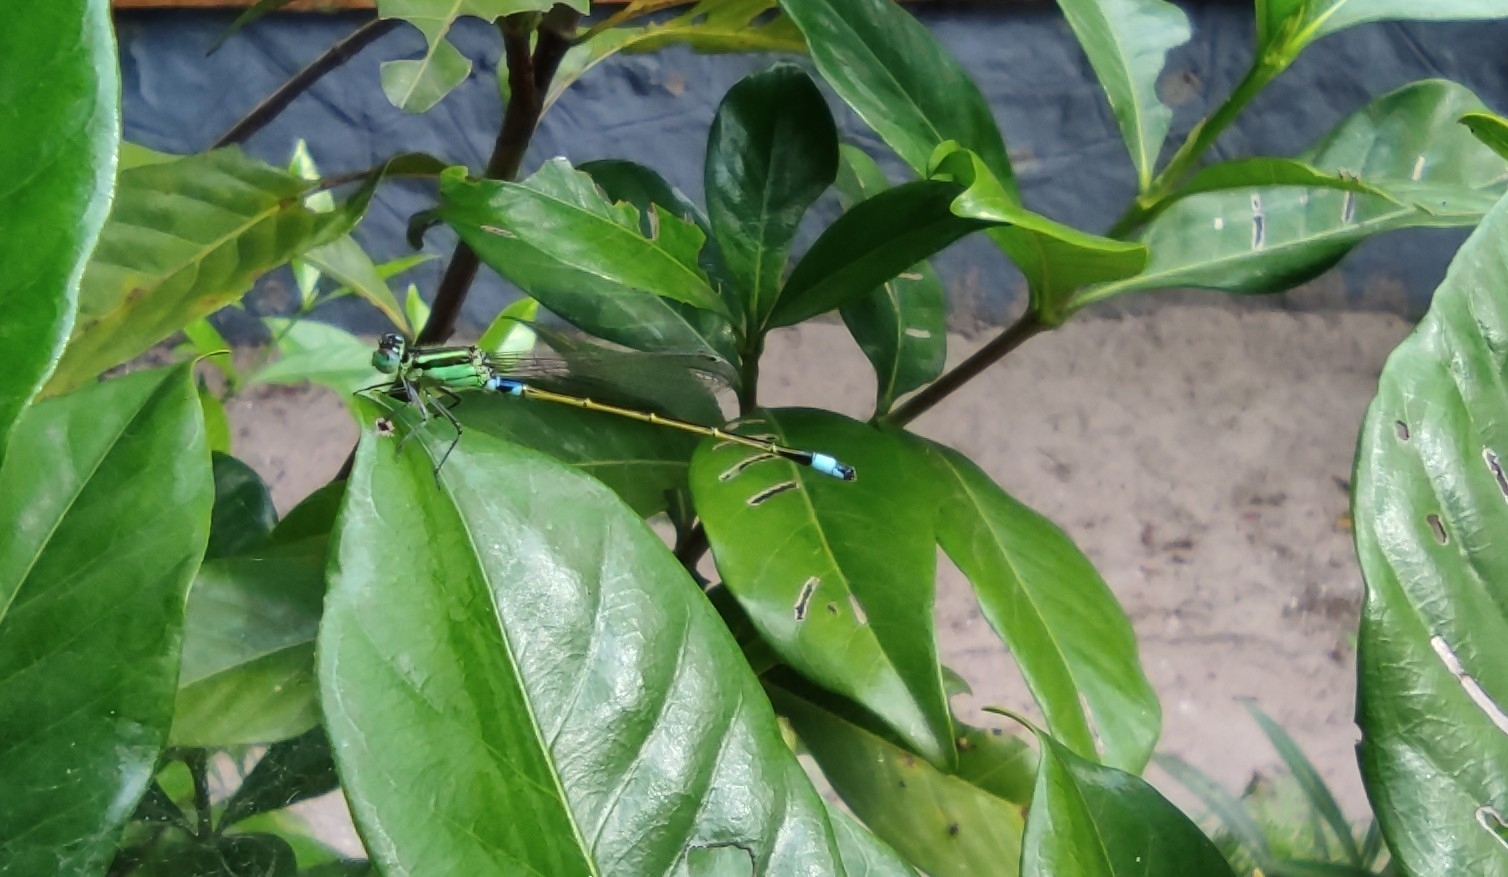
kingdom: Animalia
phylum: Arthropoda
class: Insecta
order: Odonata
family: Coenagrionidae
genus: Ischnura
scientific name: Ischnura senegalensis
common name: Tropical bluetail
